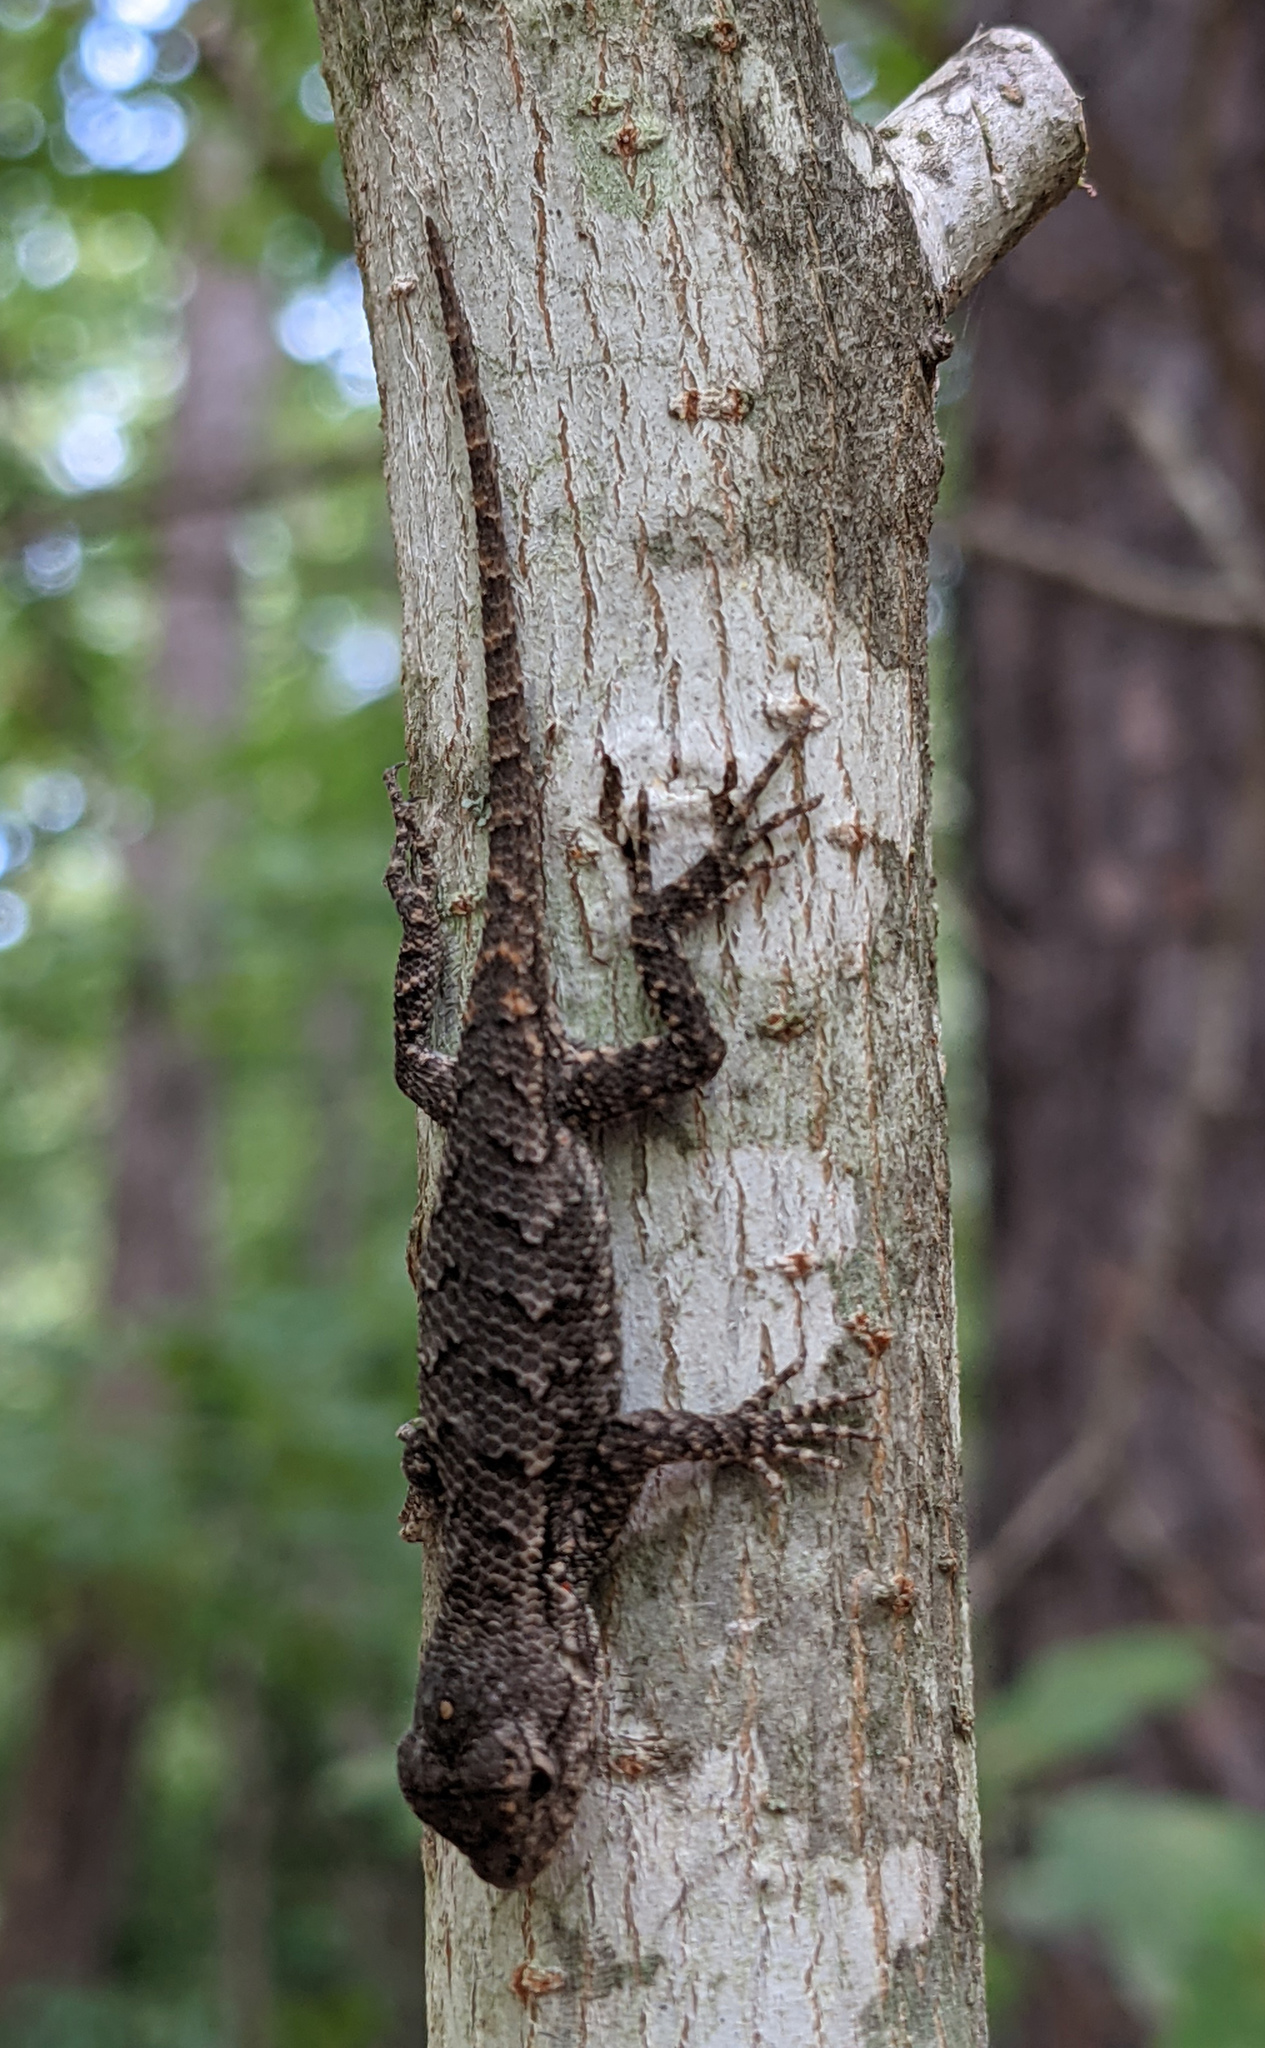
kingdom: Animalia
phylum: Chordata
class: Squamata
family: Phrynosomatidae
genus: Sceloporus
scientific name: Sceloporus undulatus
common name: Eastern fence lizard
